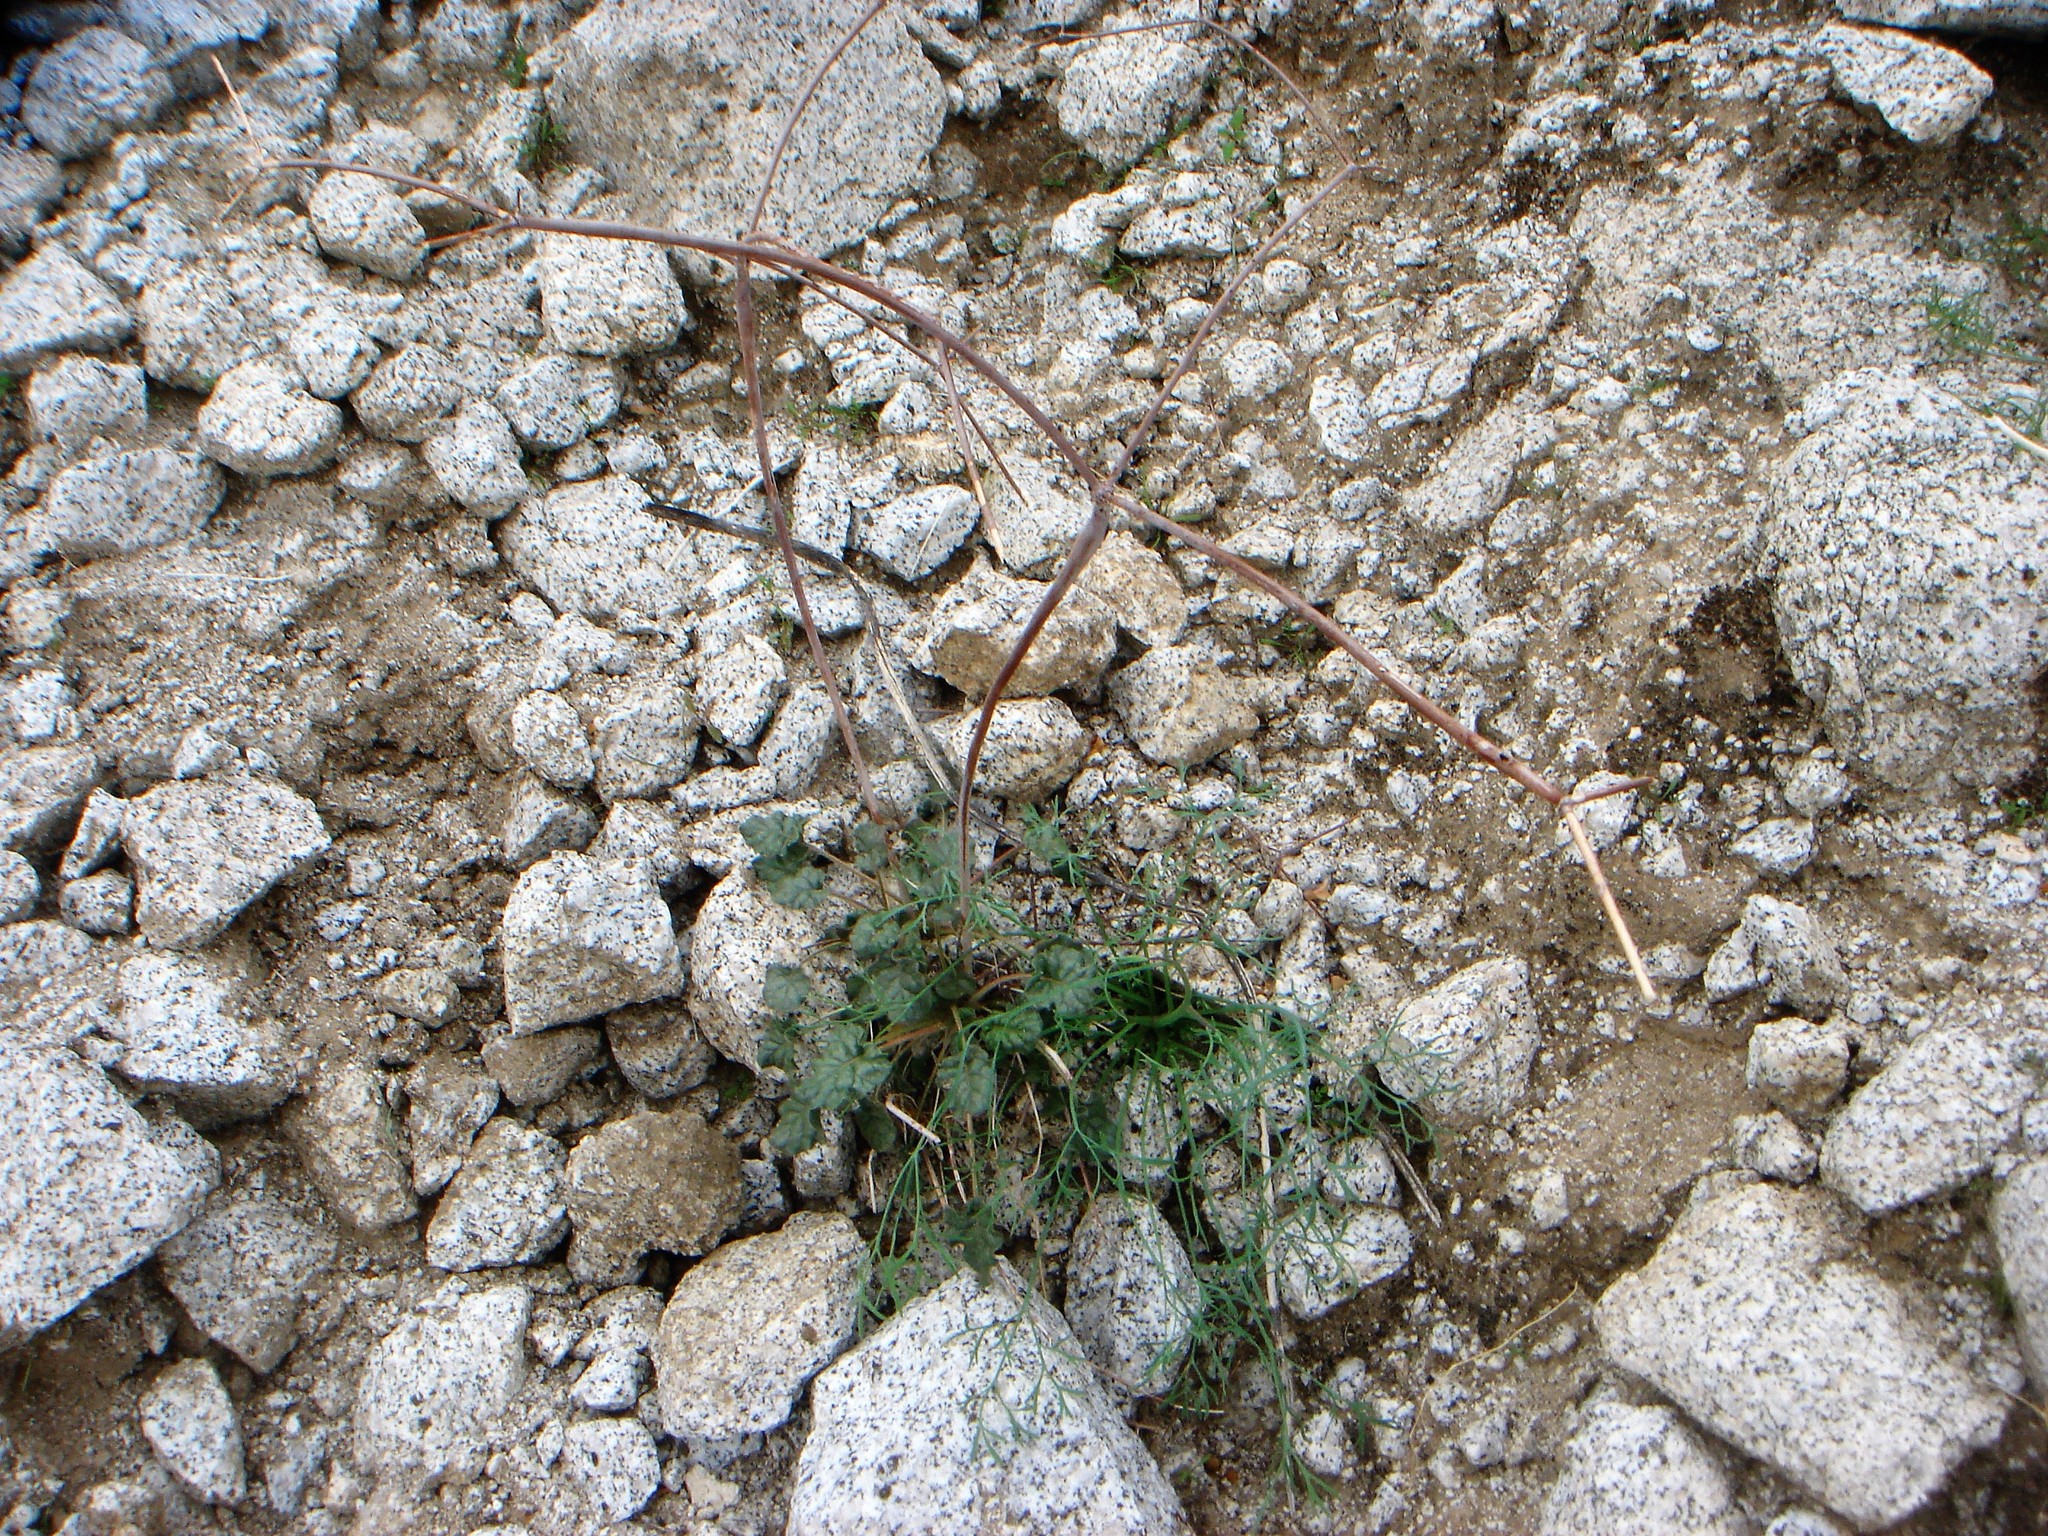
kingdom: Plantae
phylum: Tracheophyta
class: Magnoliopsida
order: Caryophyllales
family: Polygonaceae
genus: Eriogonum
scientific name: Eriogonum inflatum
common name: Desert trumpet
